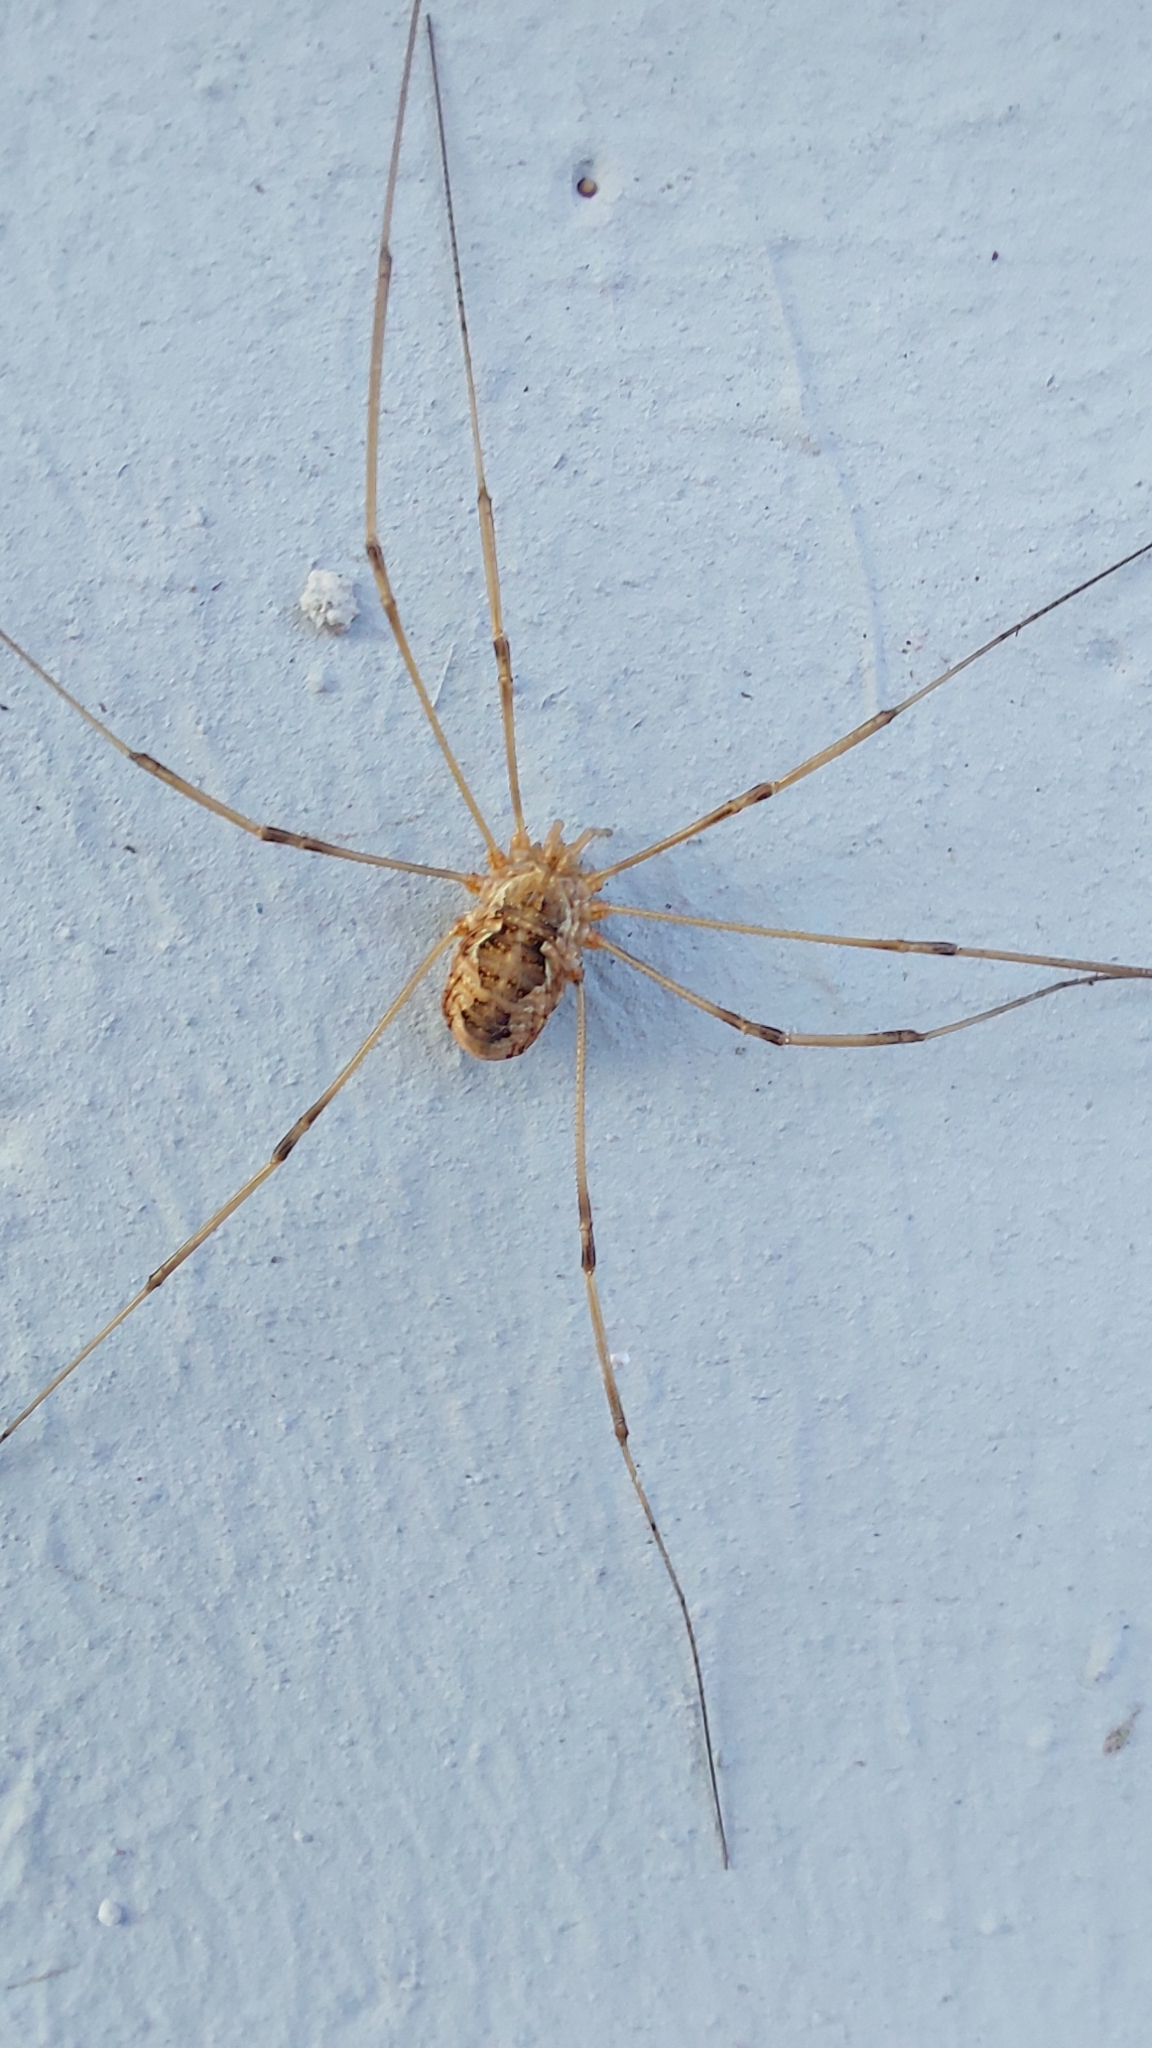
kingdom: Animalia
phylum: Arthropoda
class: Arachnida
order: Opiliones
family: Phalangiidae
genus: Phalangium
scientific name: Phalangium opilio
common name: Daddy longleg
